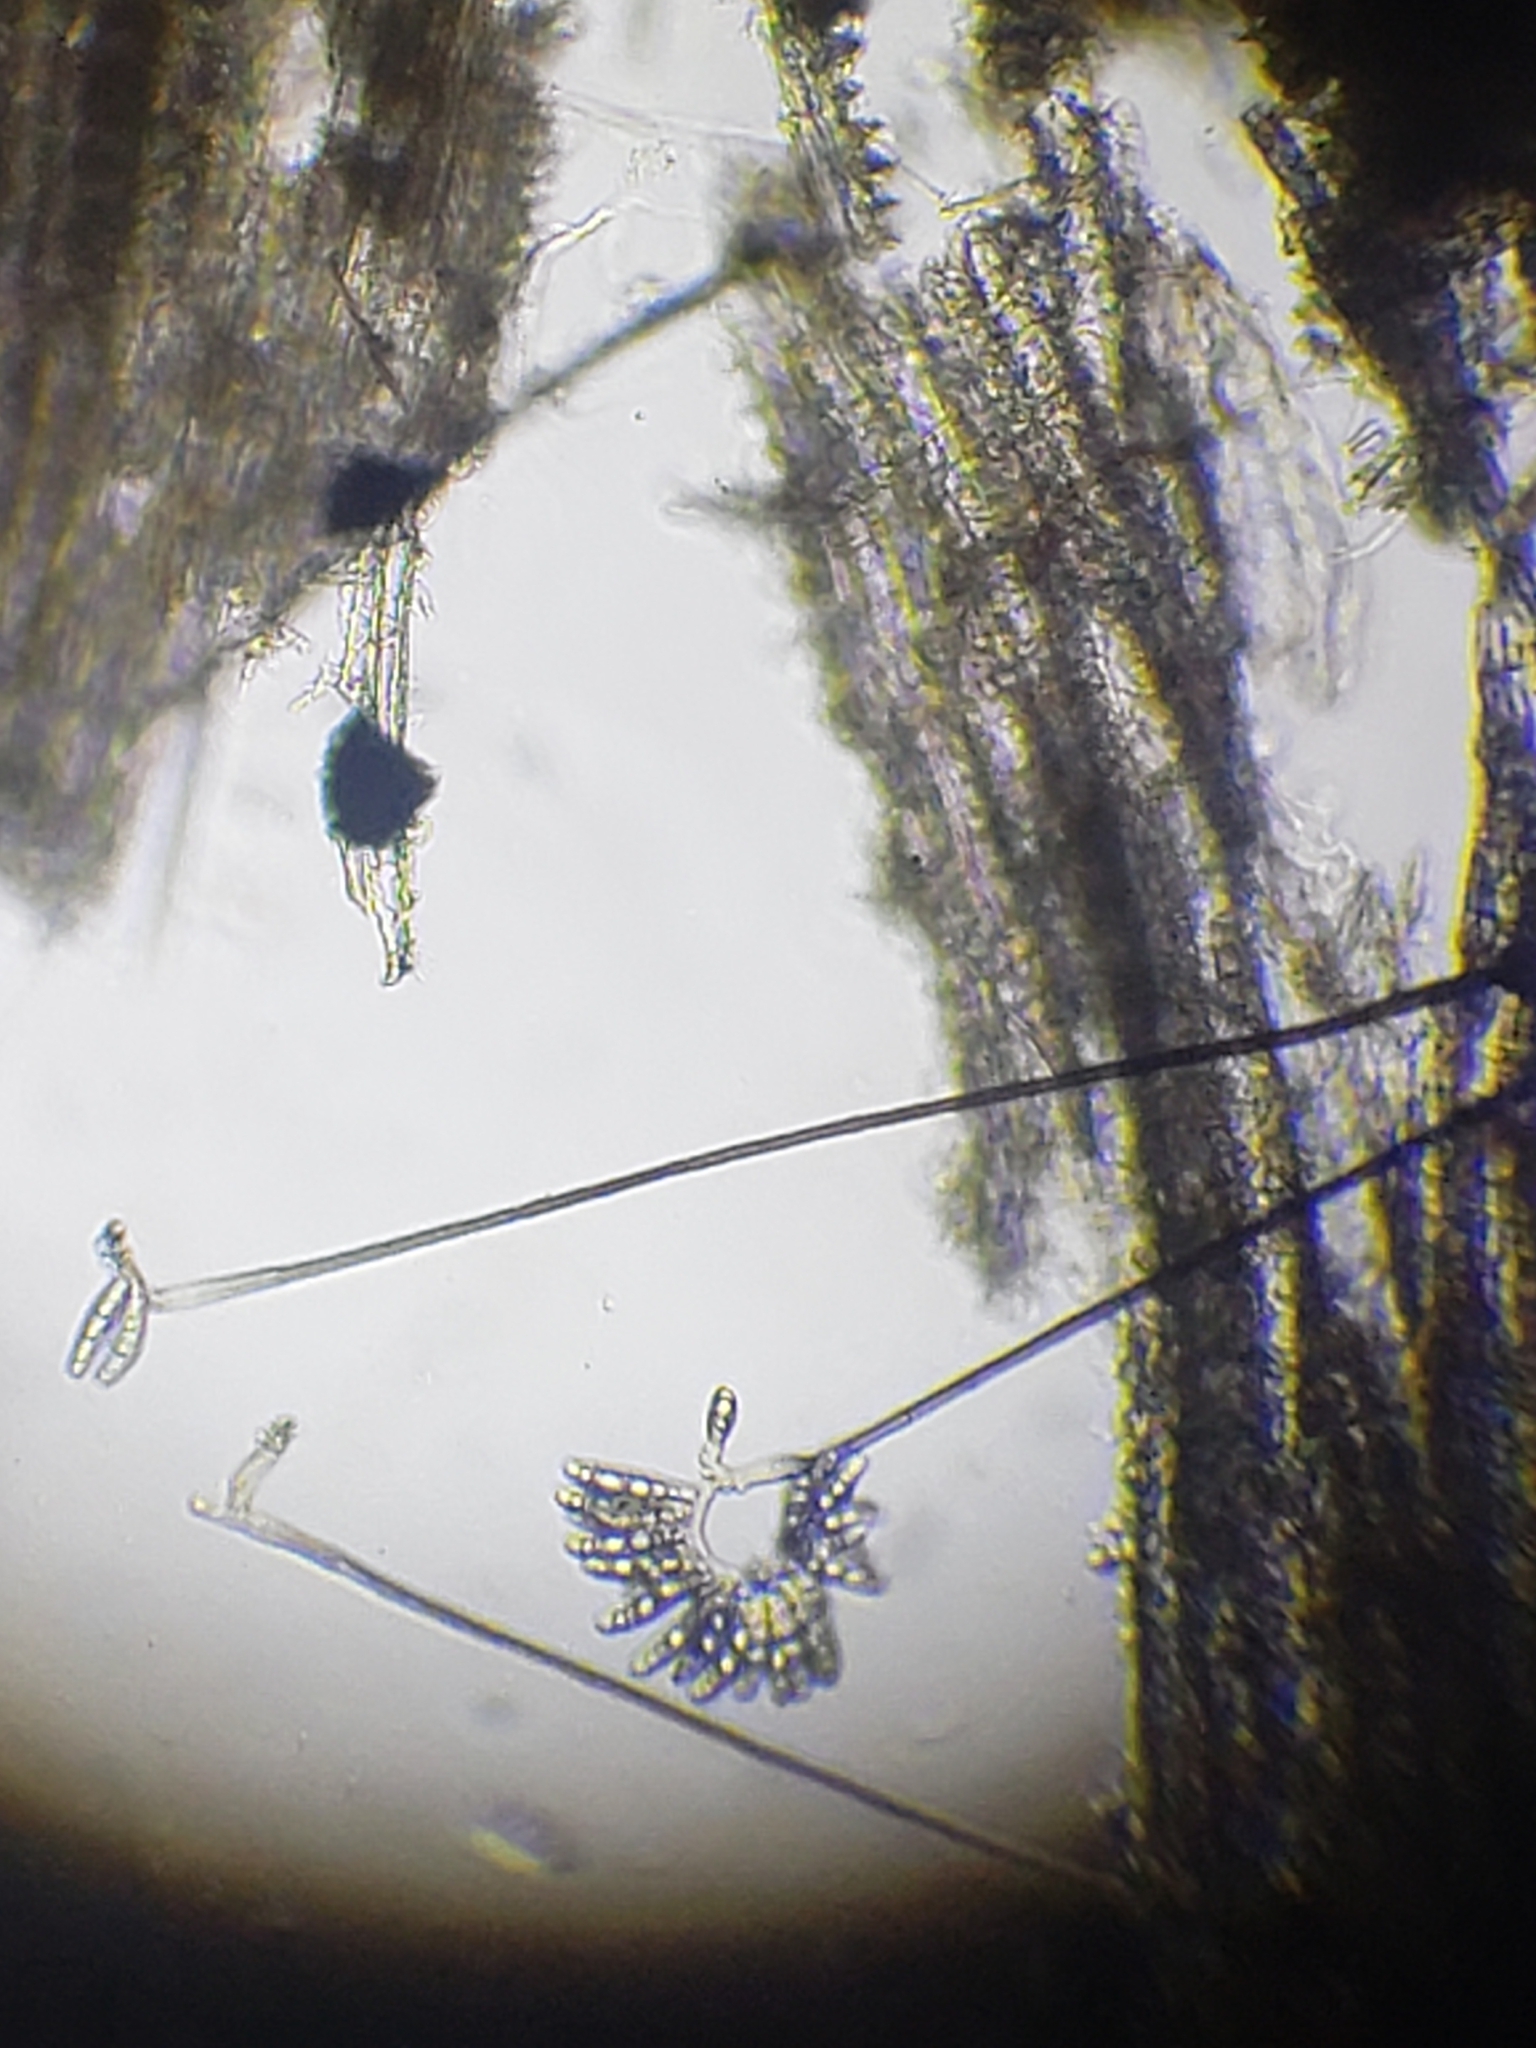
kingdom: Fungi
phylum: Ascomycota
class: Sordariomycetes
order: Pleurotheciales
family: Pleurotheciaceae
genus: Pleurothecium
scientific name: Pleurothecium recurvatum
